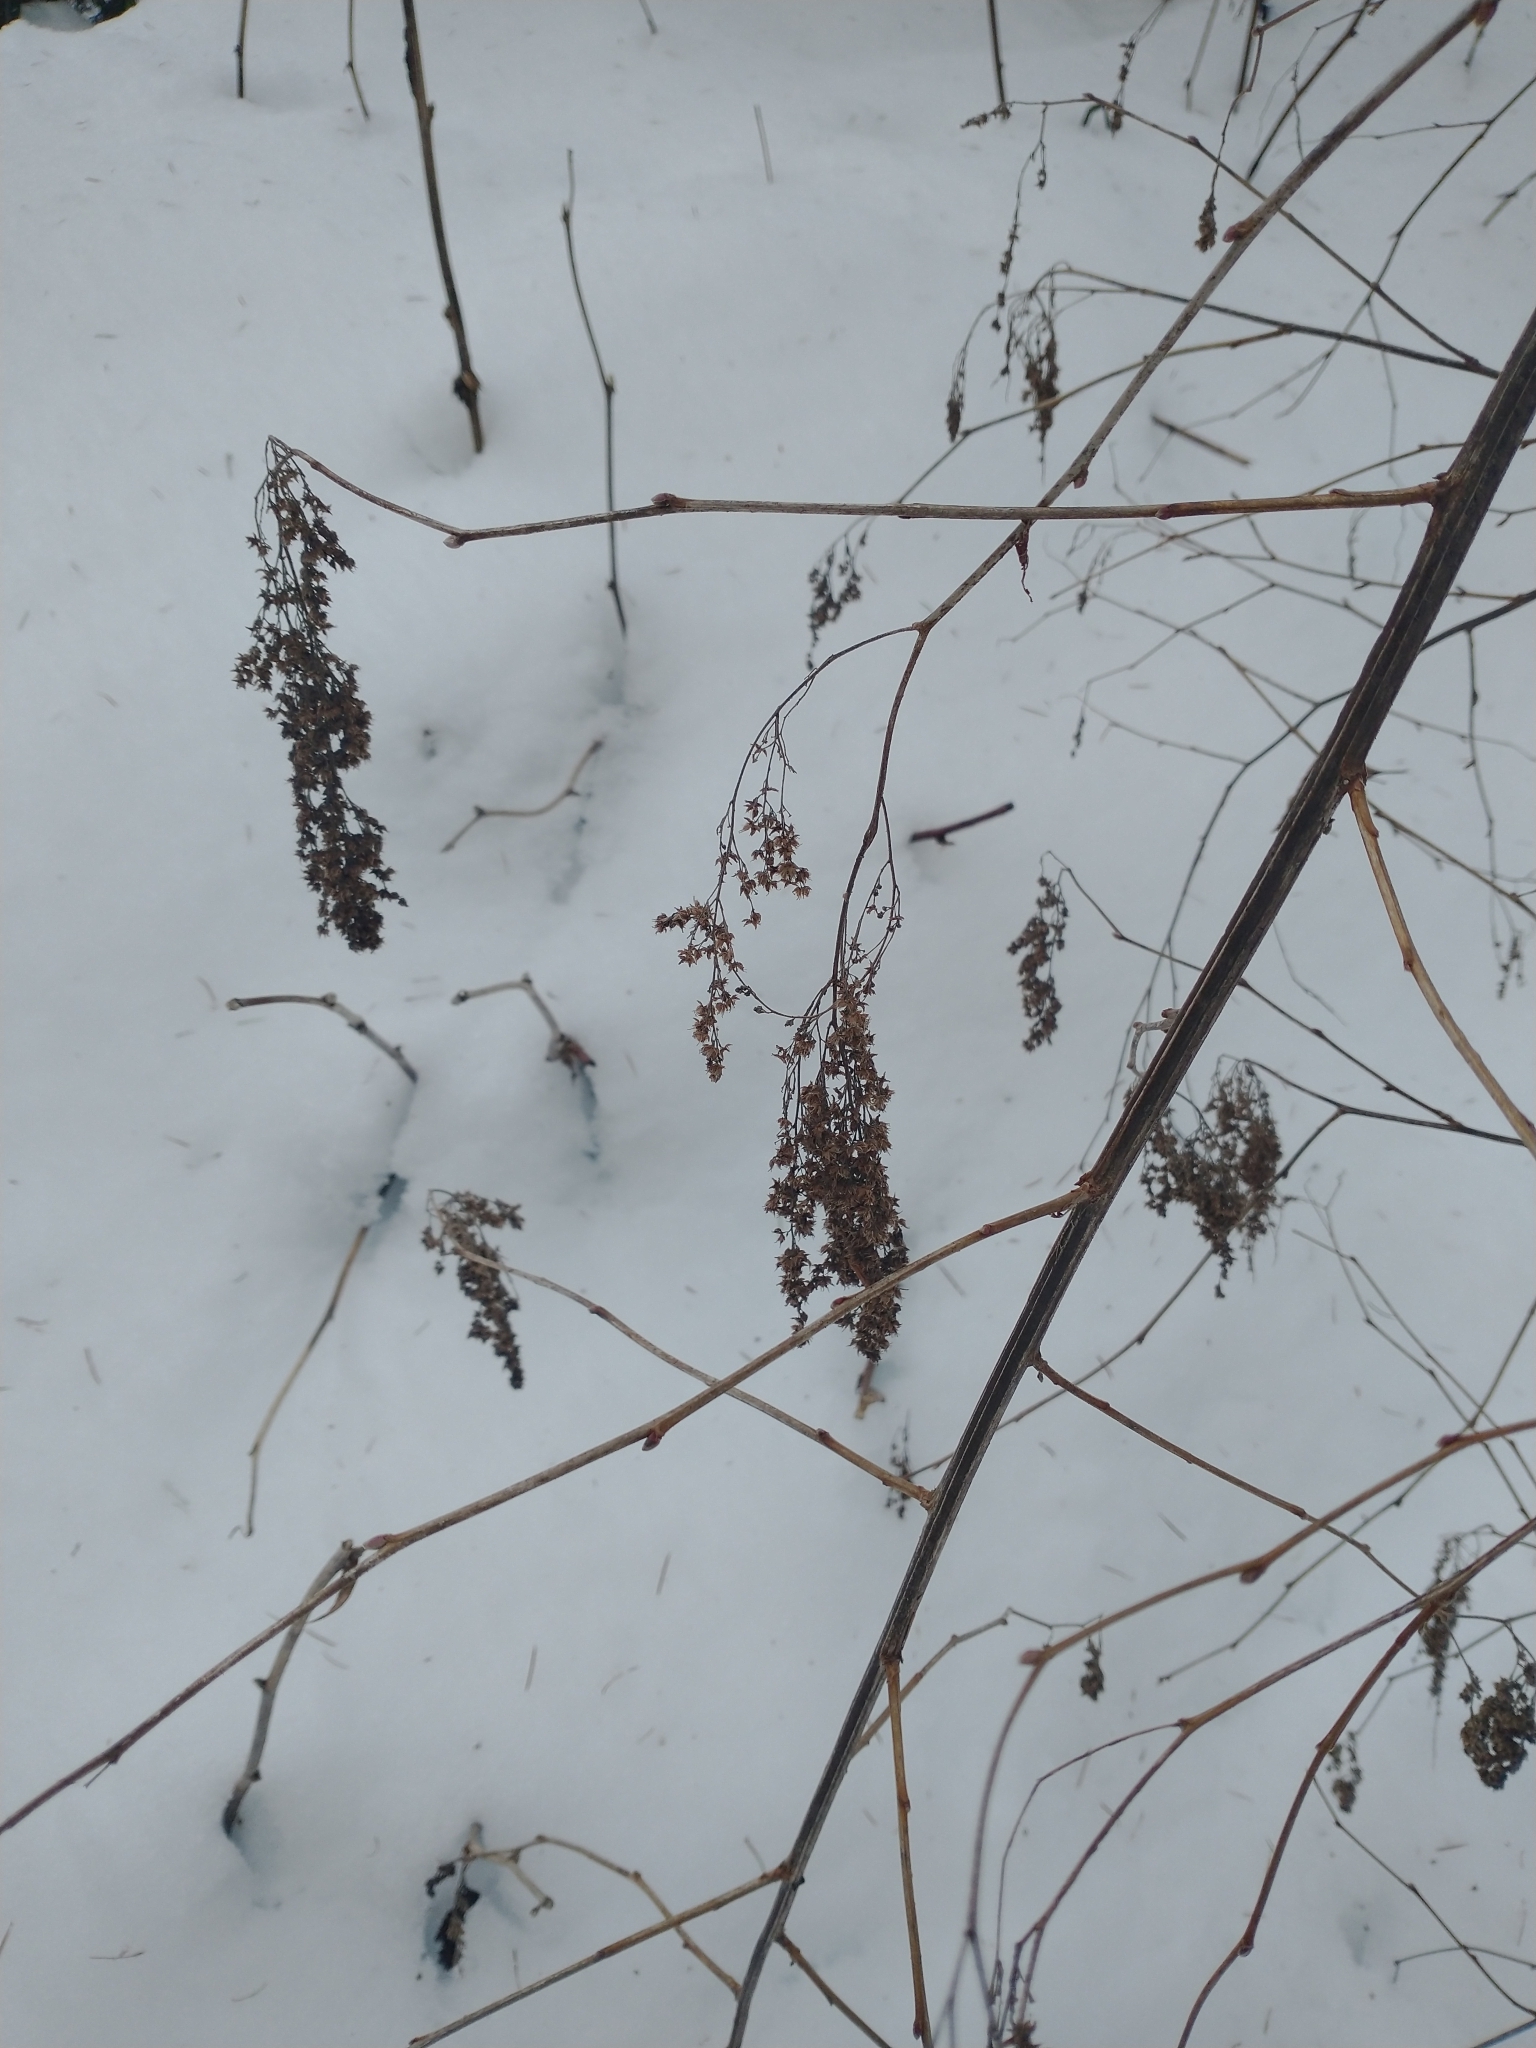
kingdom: Plantae
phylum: Tracheophyta
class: Magnoliopsida
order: Rosales
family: Rosaceae
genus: Holodiscus
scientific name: Holodiscus discolor
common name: Oceanspray
